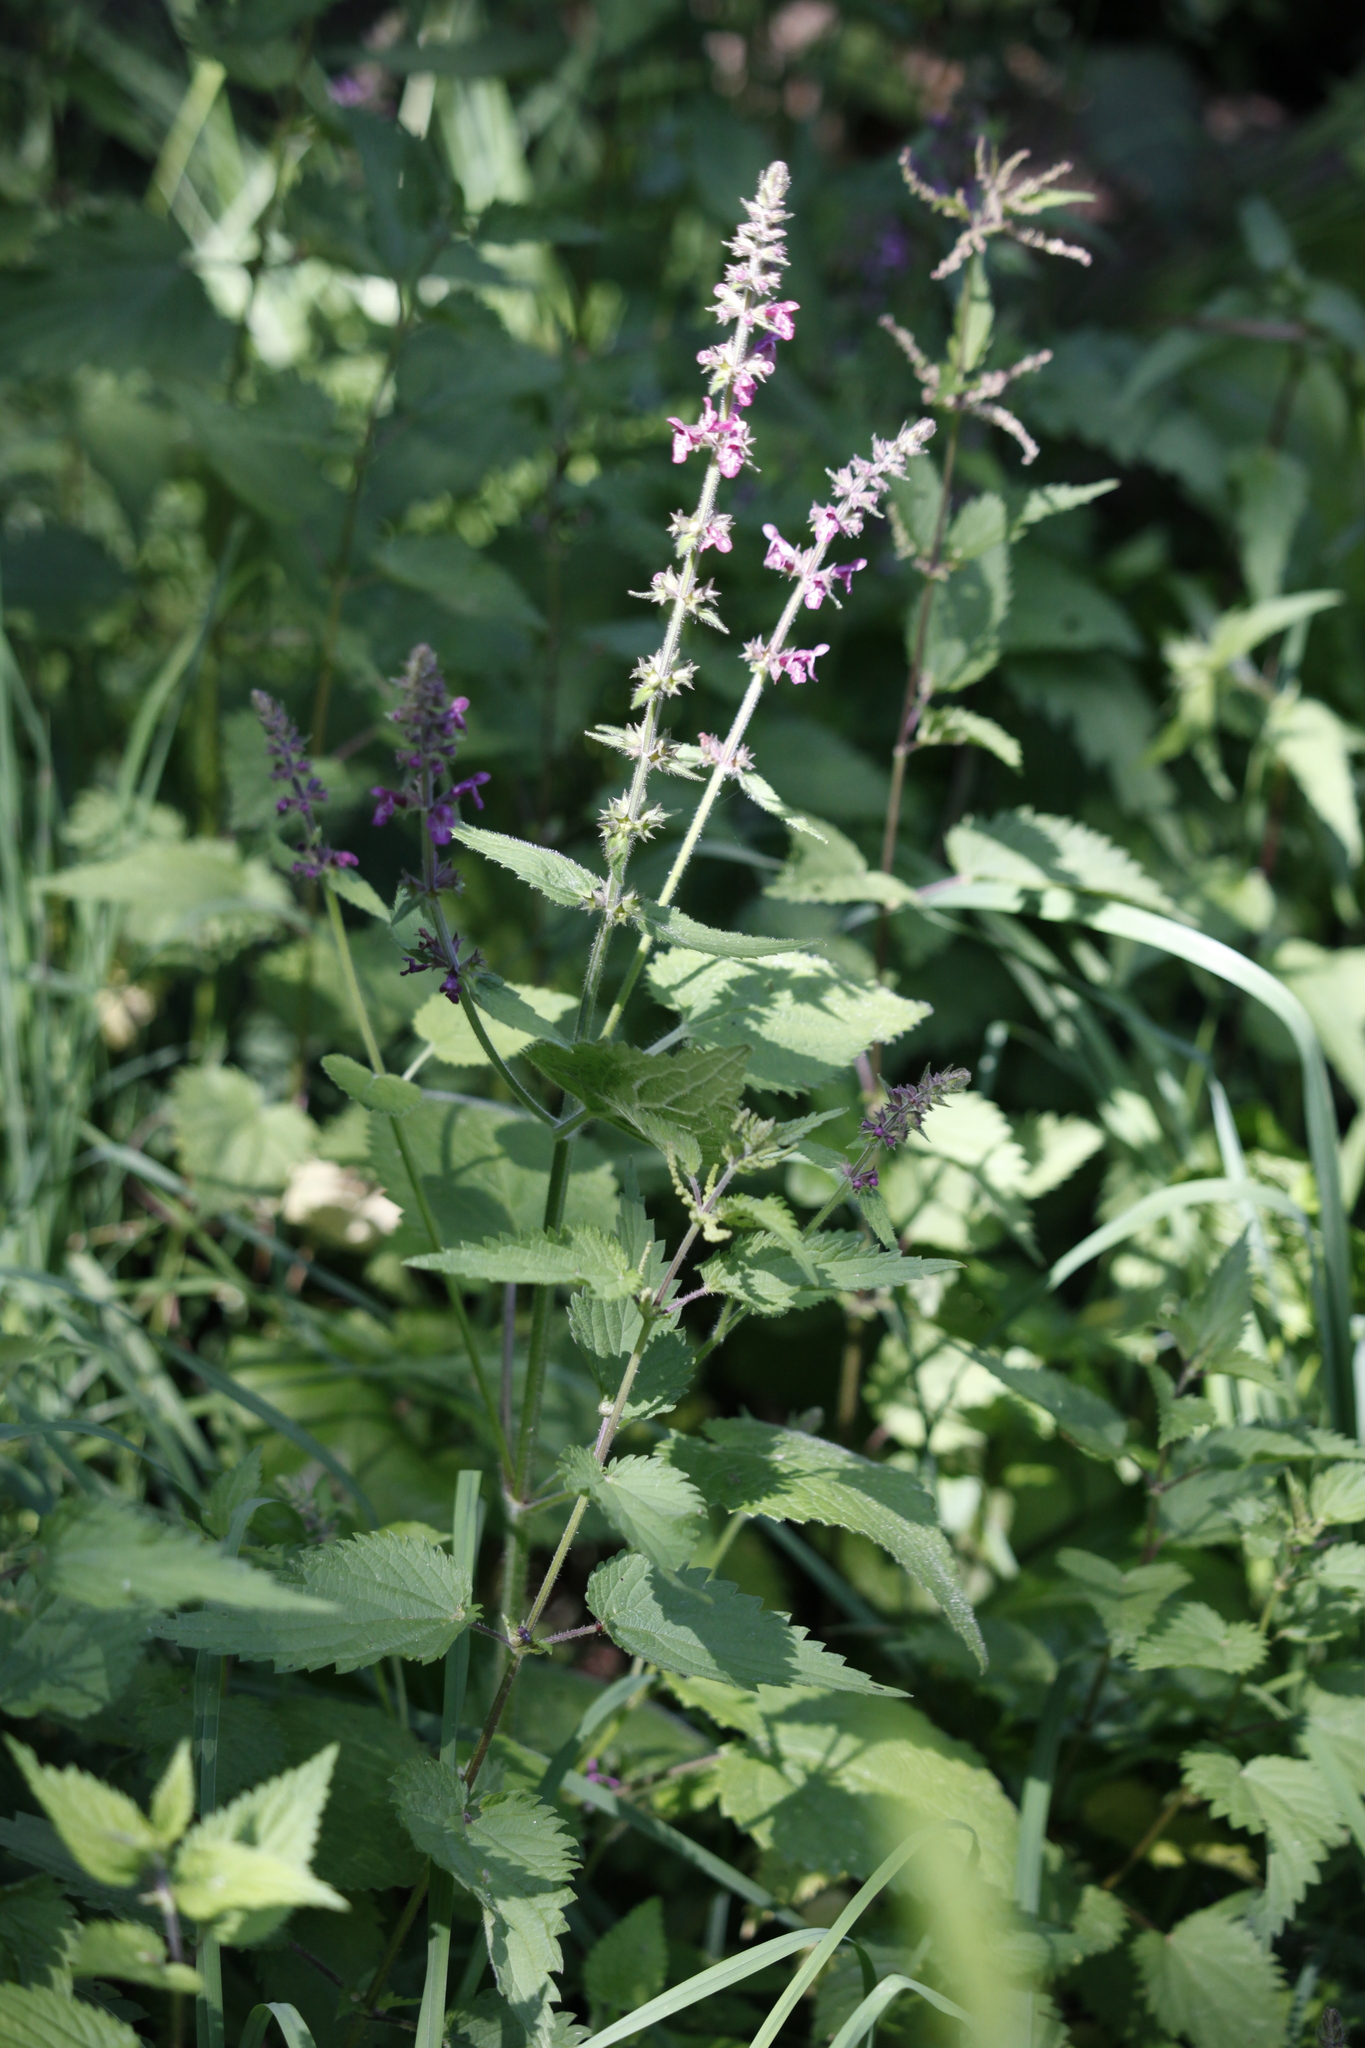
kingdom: Plantae
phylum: Tracheophyta
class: Magnoliopsida
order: Lamiales
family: Lamiaceae
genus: Stachys
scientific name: Stachys sylvatica
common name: Hedge woundwort
